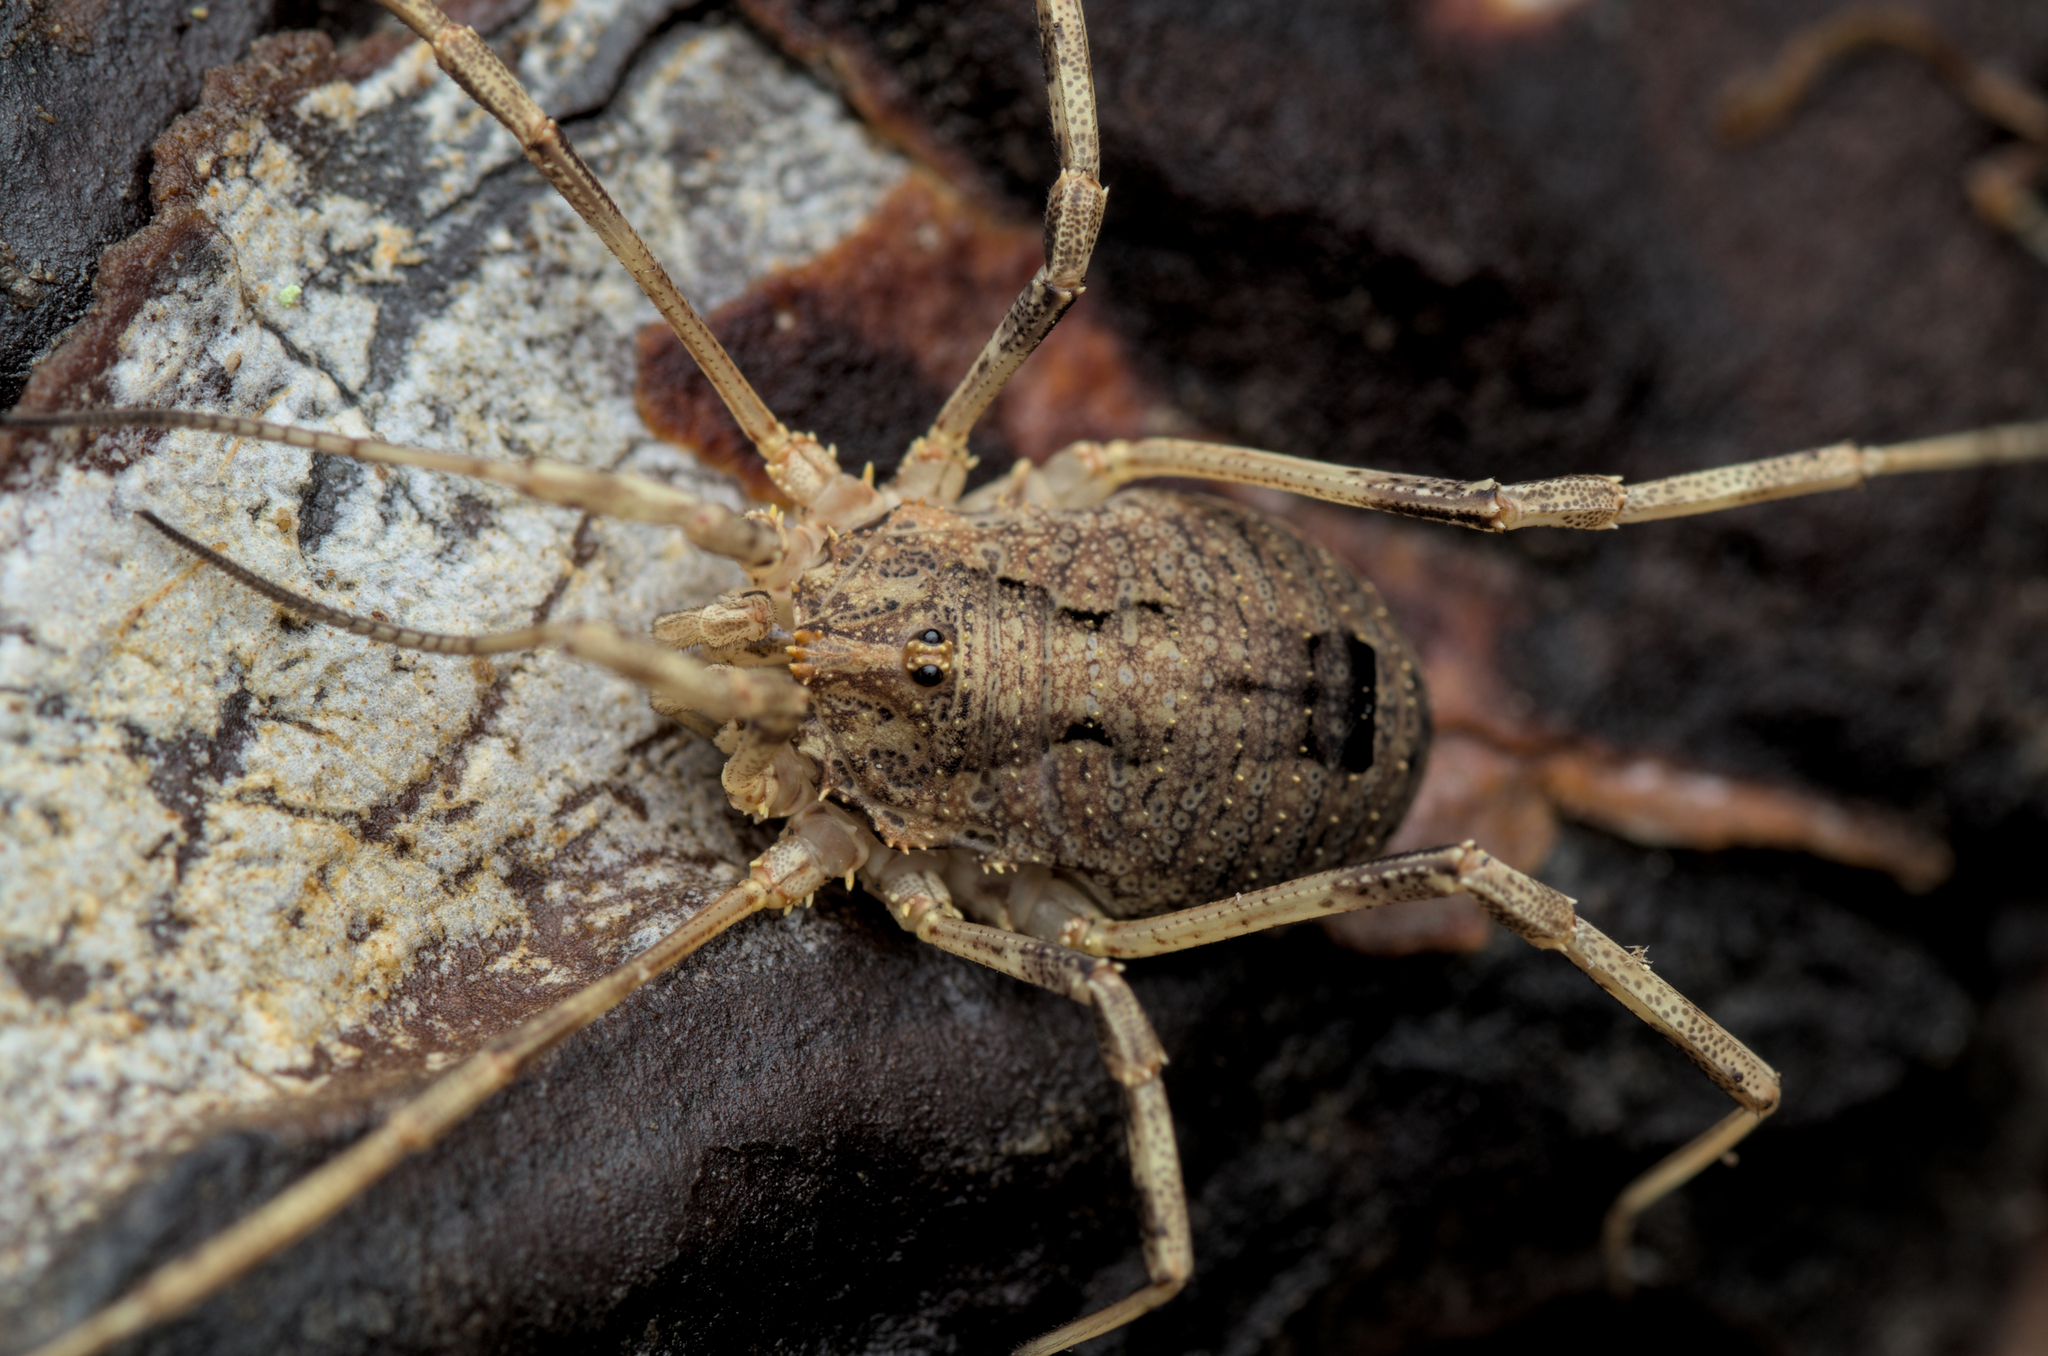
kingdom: Animalia
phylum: Arthropoda
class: Arachnida
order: Opiliones
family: Phalangiidae
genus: Odiellus
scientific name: Odiellus spinosus
